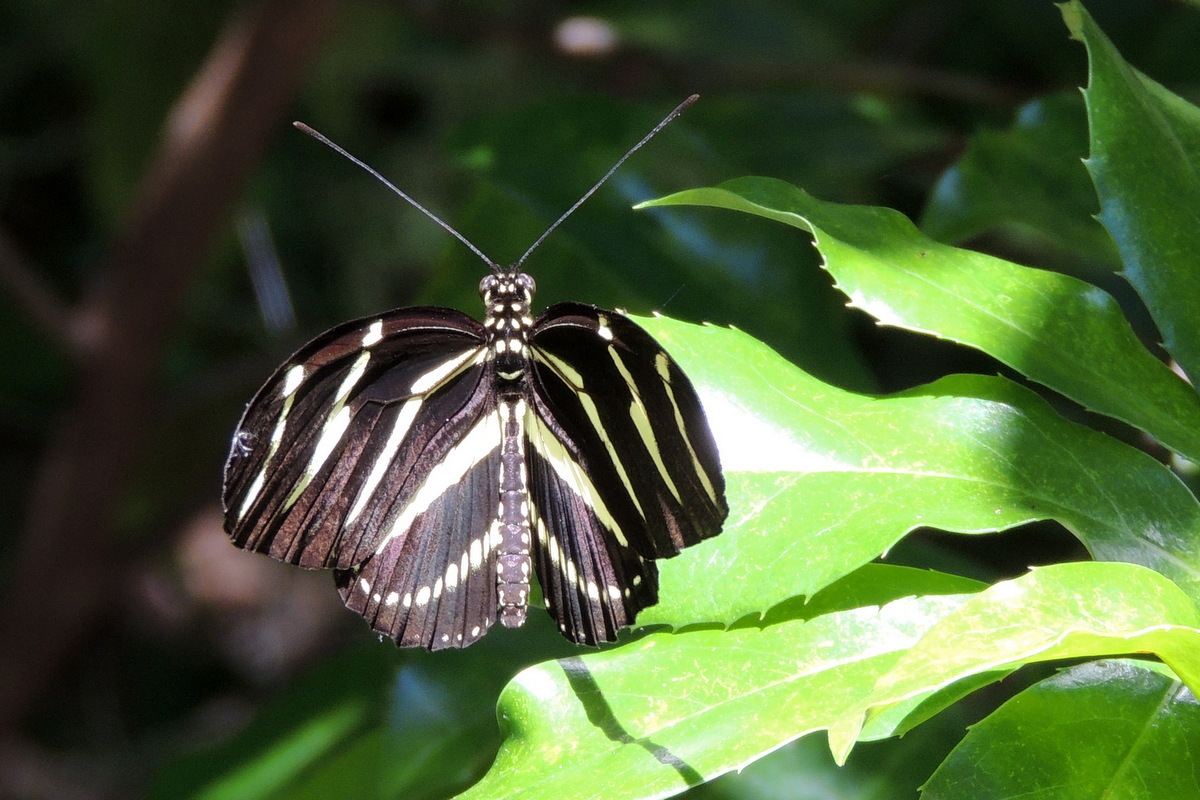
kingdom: Animalia
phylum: Arthropoda
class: Insecta
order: Lepidoptera
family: Nymphalidae
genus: Heliconius
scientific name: Heliconius charithonia
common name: Zebra long wing
